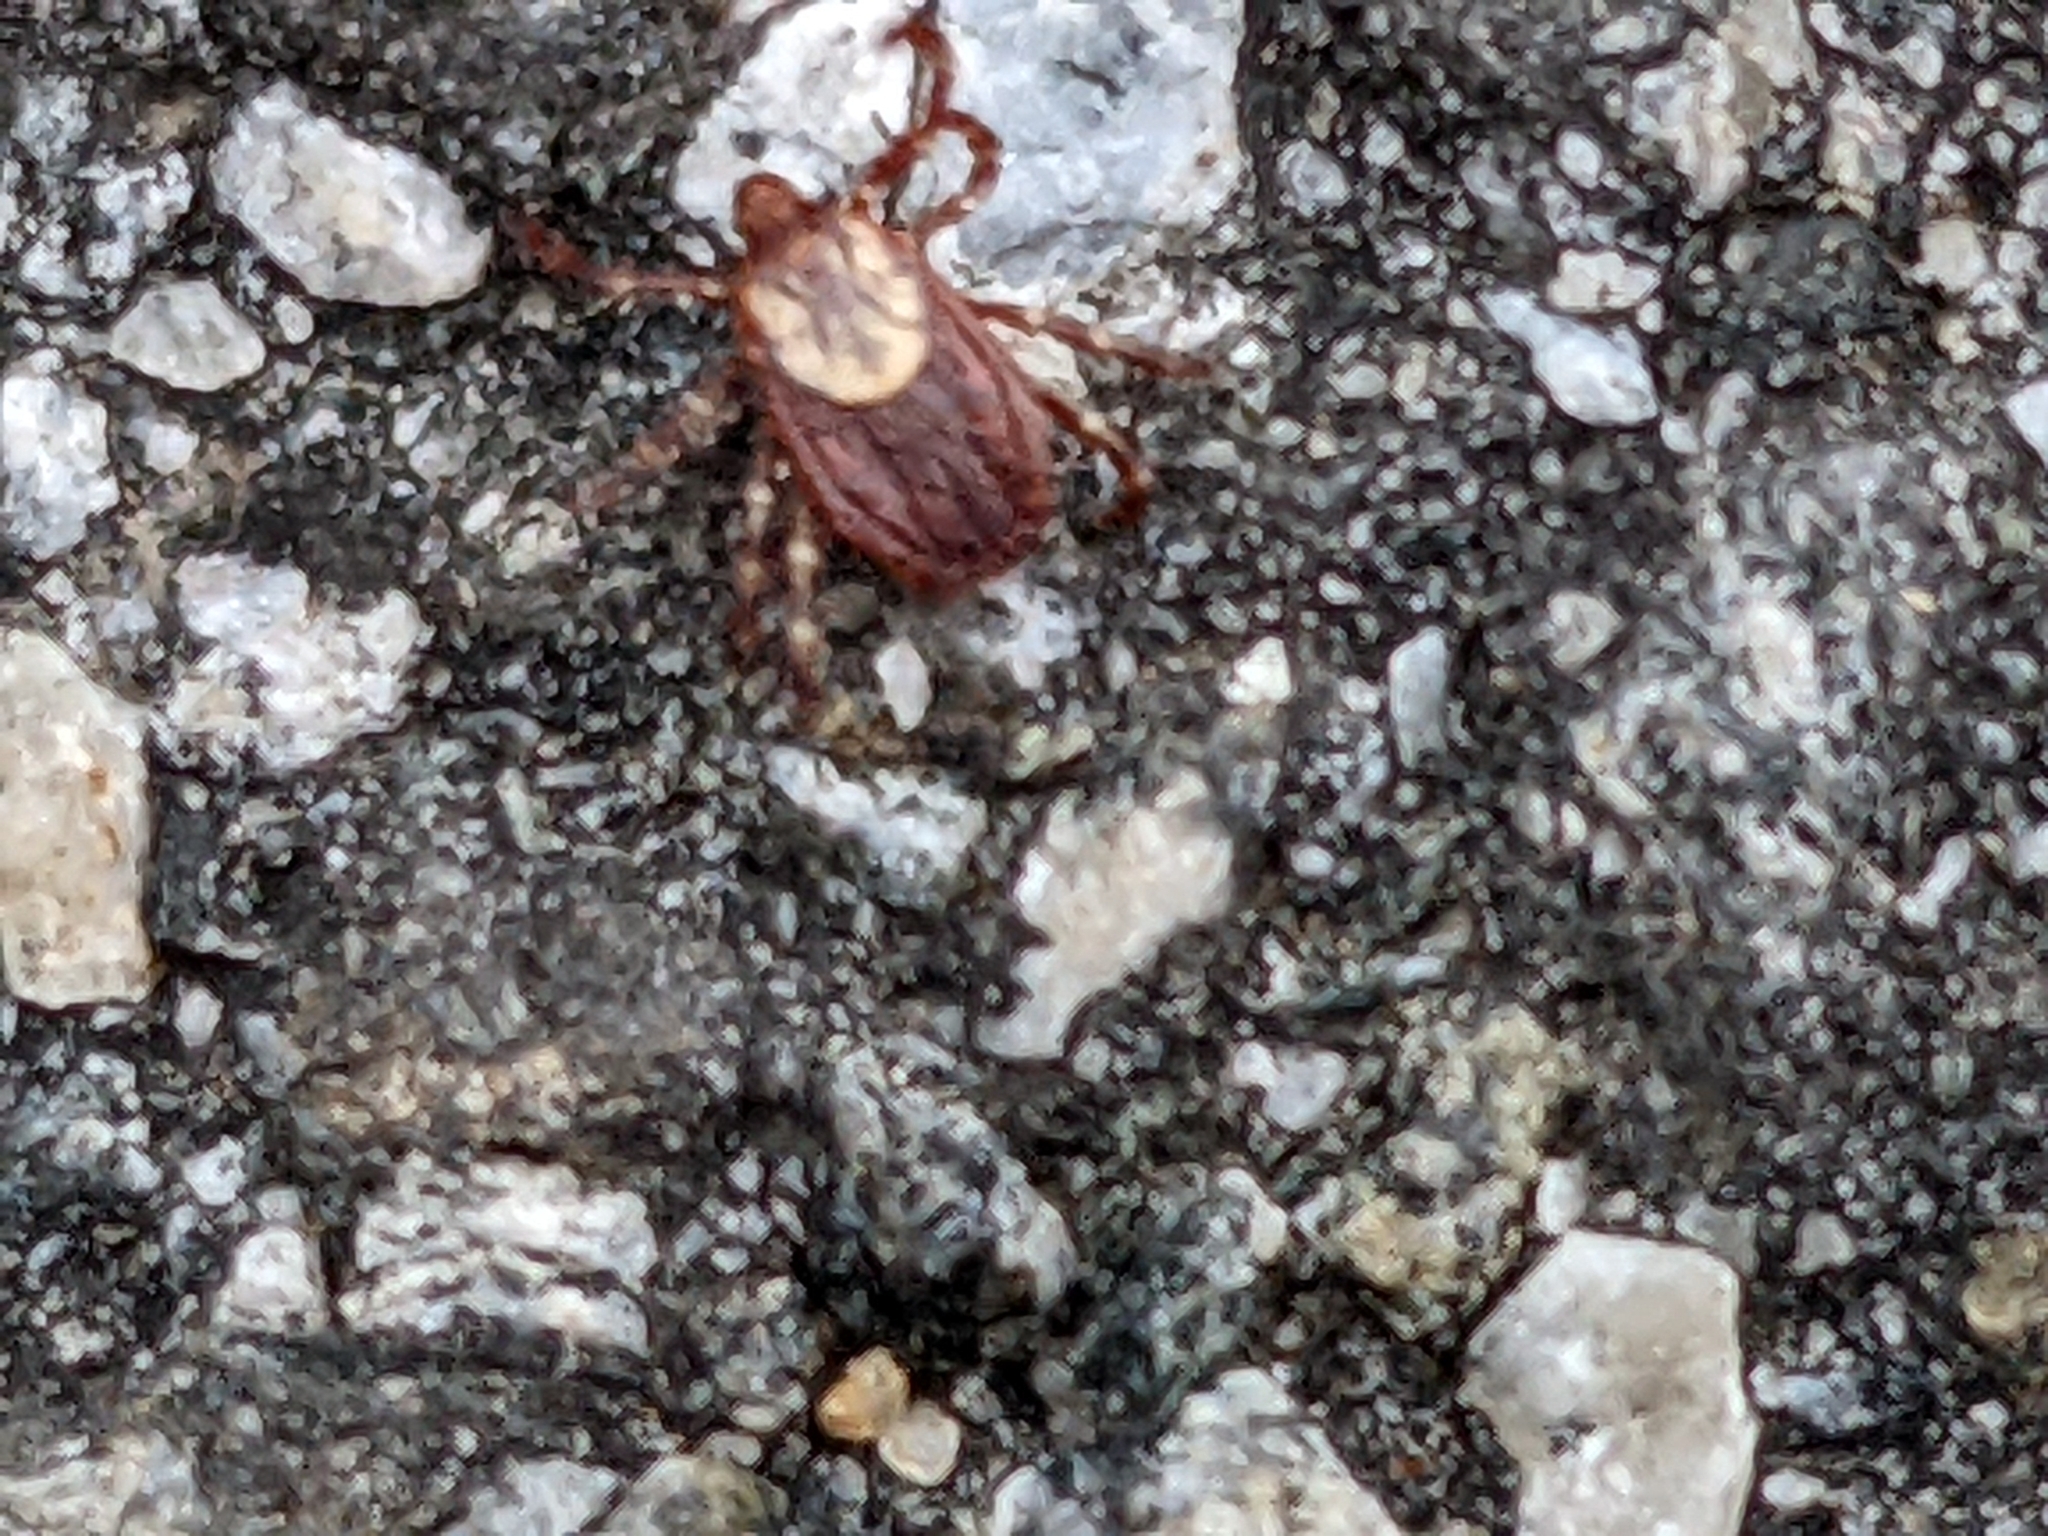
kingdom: Animalia
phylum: Arthropoda
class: Arachnida
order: Ixodida
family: Ixodidae
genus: Dermacentor
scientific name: Dermacentor variabilis
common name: American dog tick
